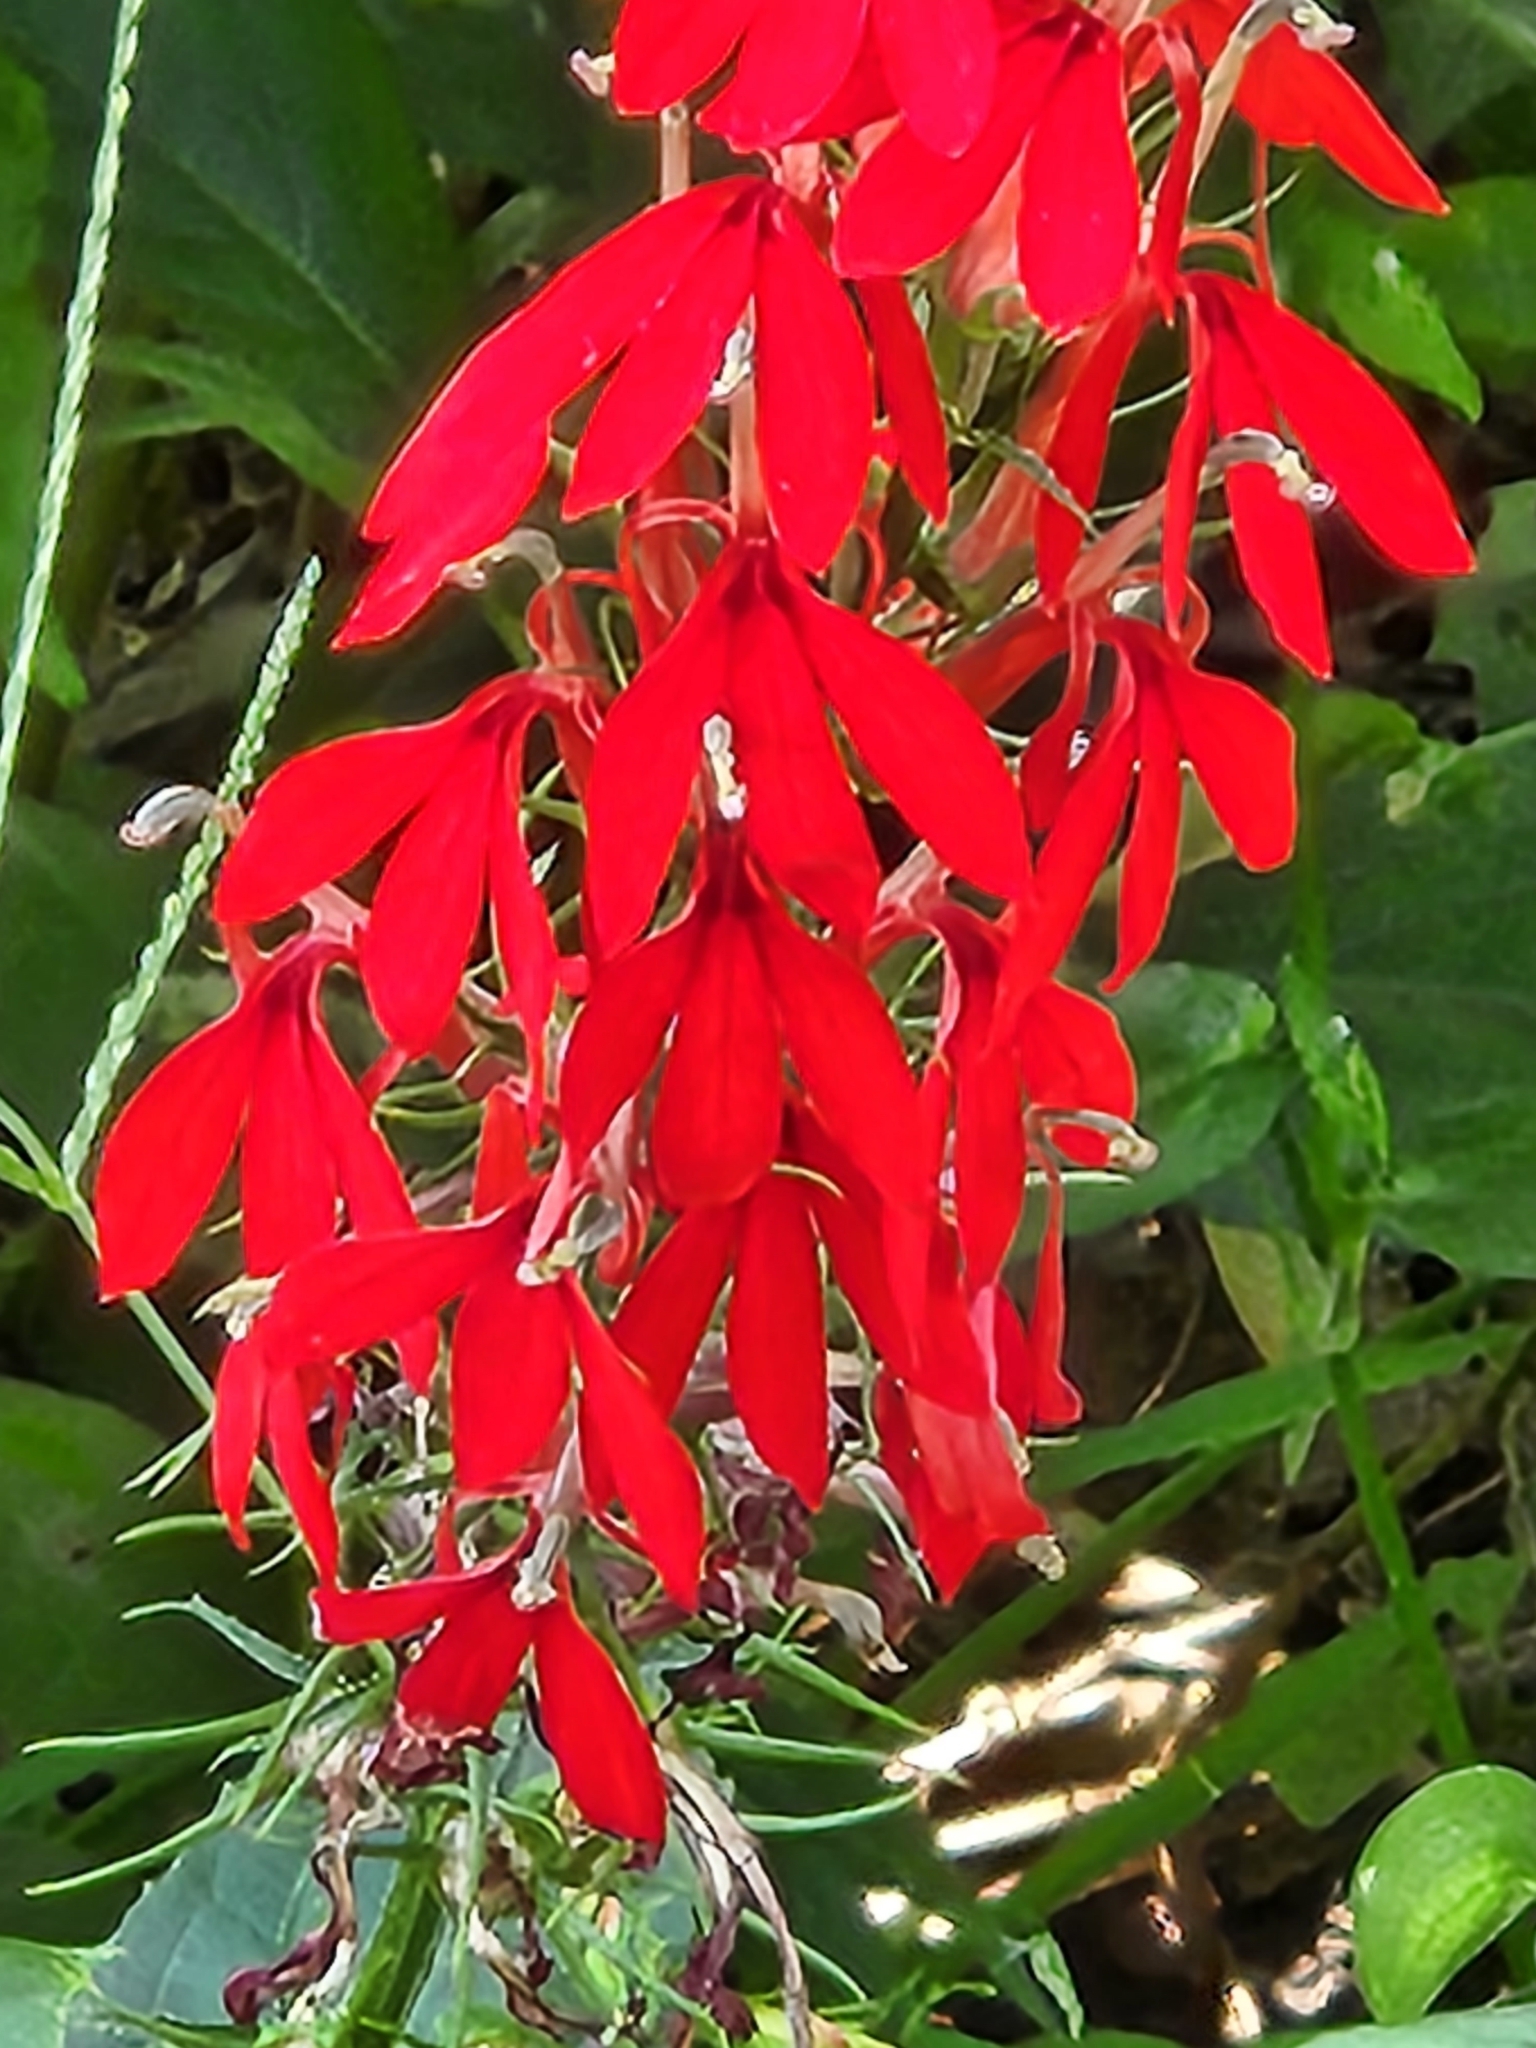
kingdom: Plantae
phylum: Tracheophyta
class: Magnoliopsida
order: Asterales
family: Campanulaceae
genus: Lobelia
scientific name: Lobelia cardinalis
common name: Cardinal flower
